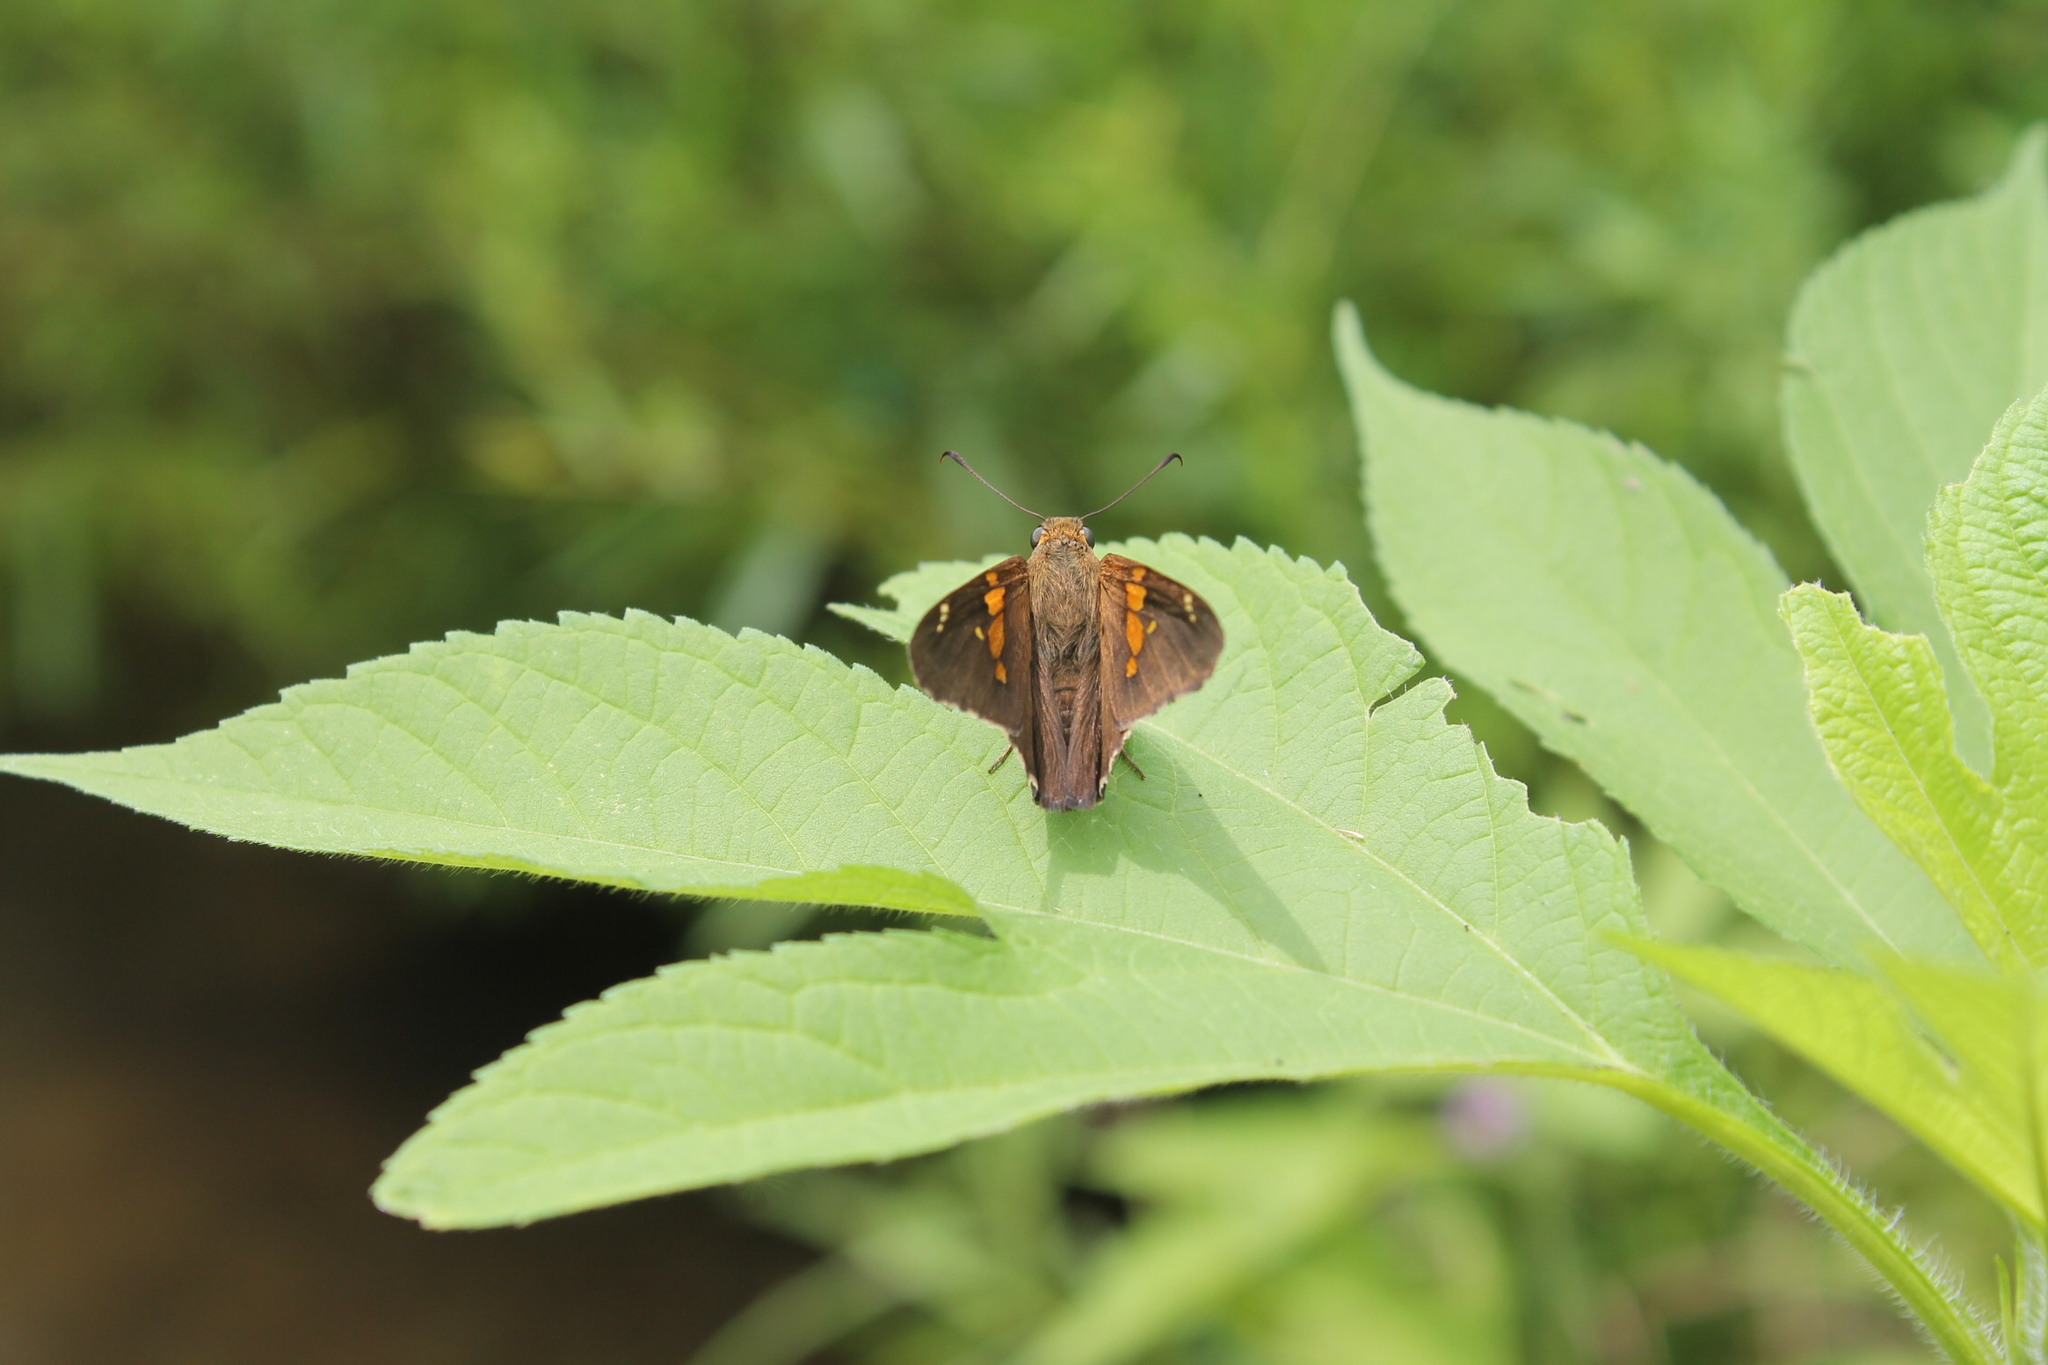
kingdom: Animalia
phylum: Arthropoda
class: Insecta
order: Lepidoptera
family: Hesperiidae
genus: Epargyreus
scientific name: Epargyreus clarus
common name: Silver-spotted skipper
